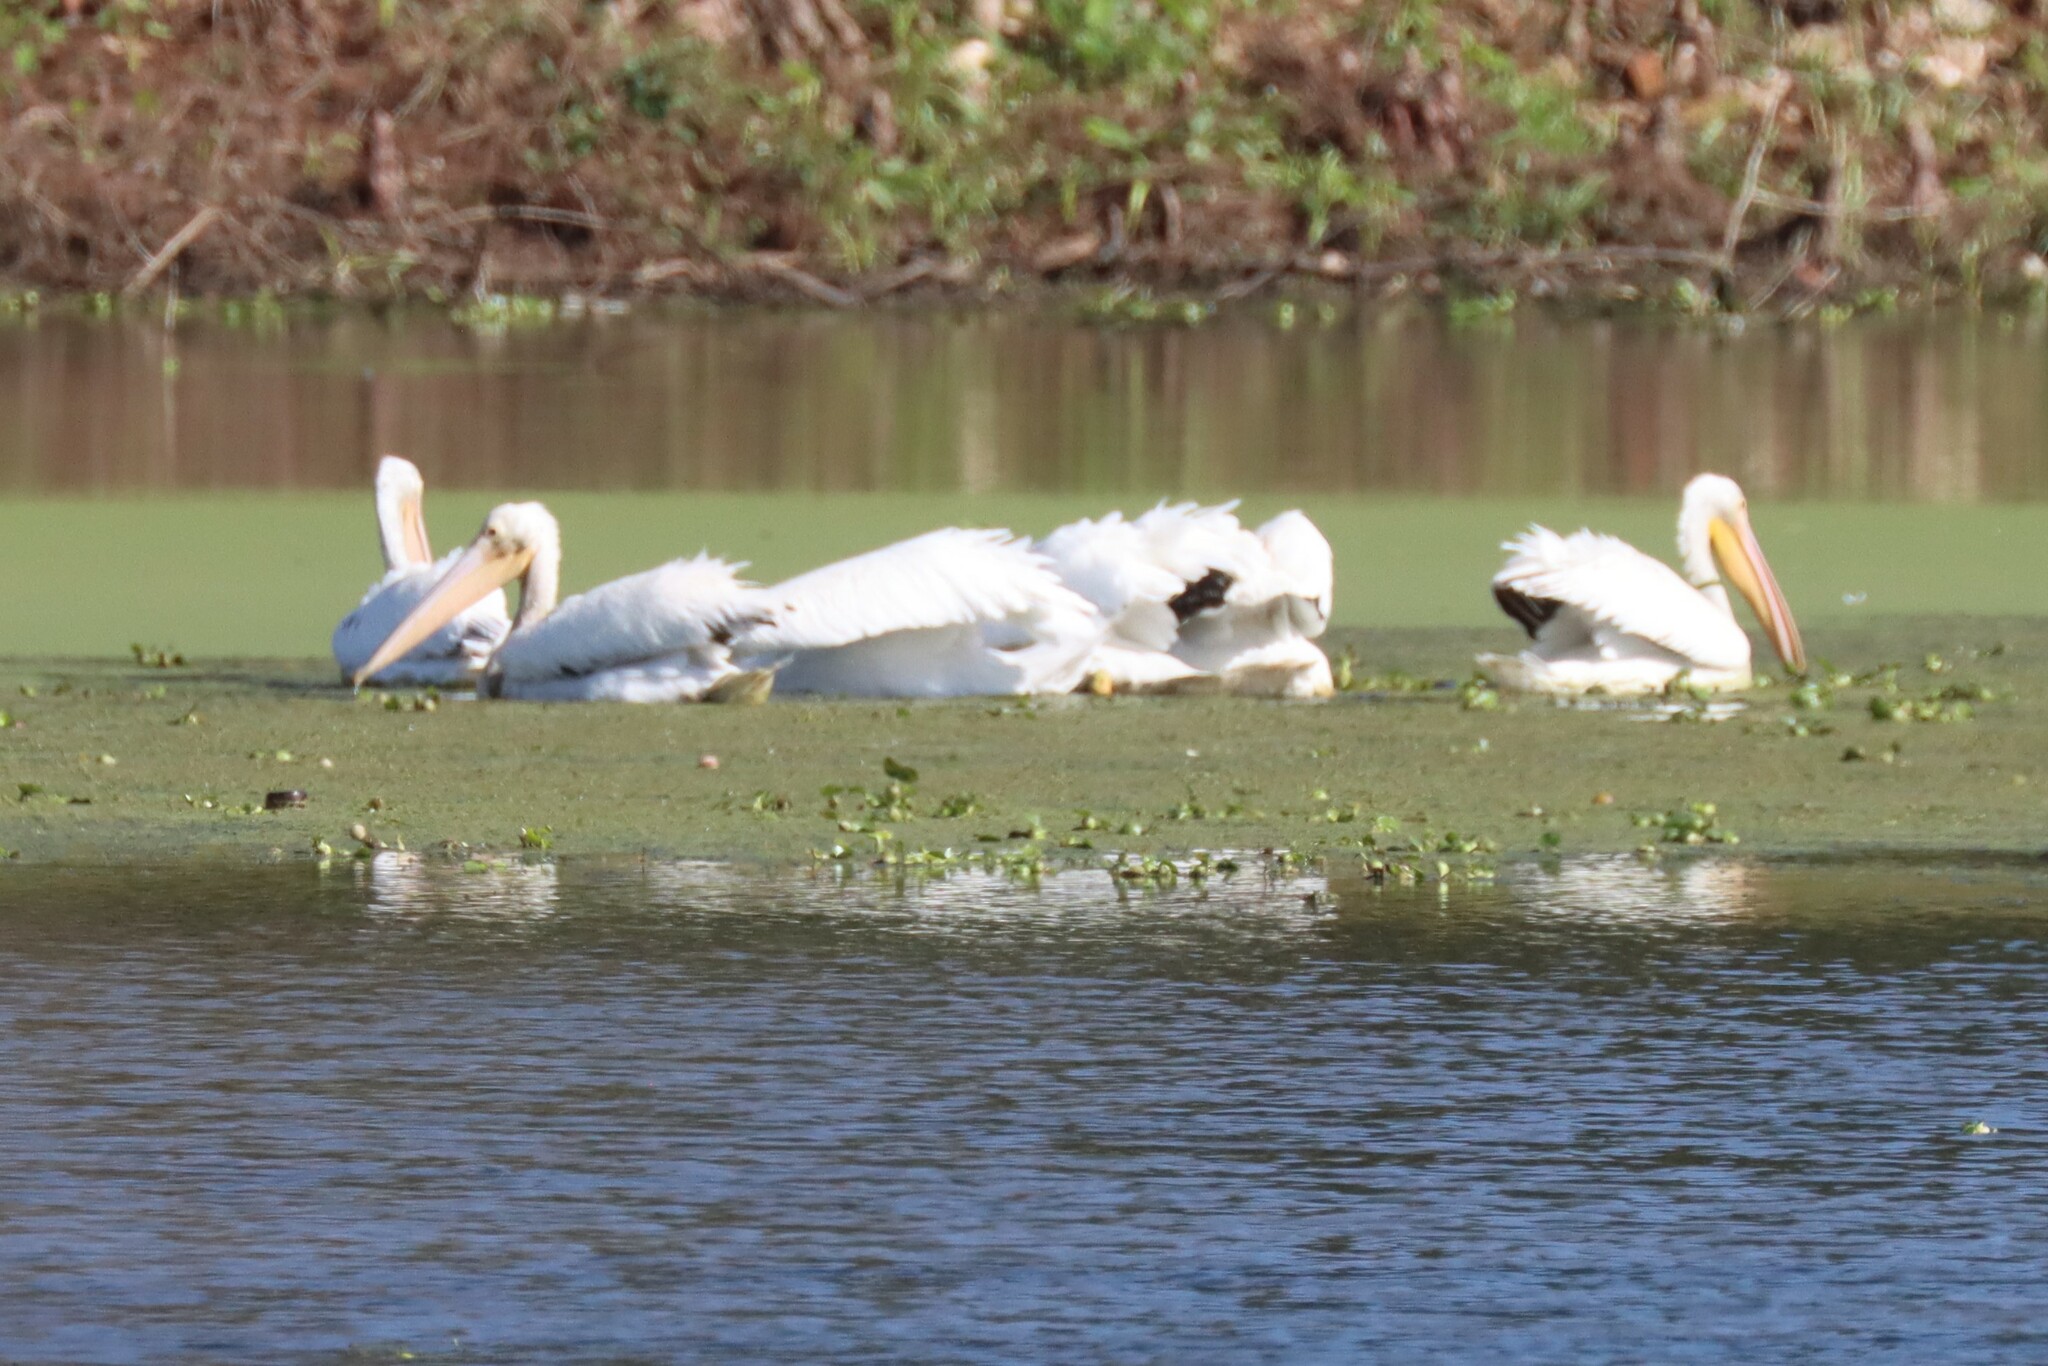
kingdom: Animalia
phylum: Chordata
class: Aves
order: Pelecaniformes
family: Pelecanidae
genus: Pelecanus
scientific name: Pelecanus erythrorhynchos
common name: American white pelican
